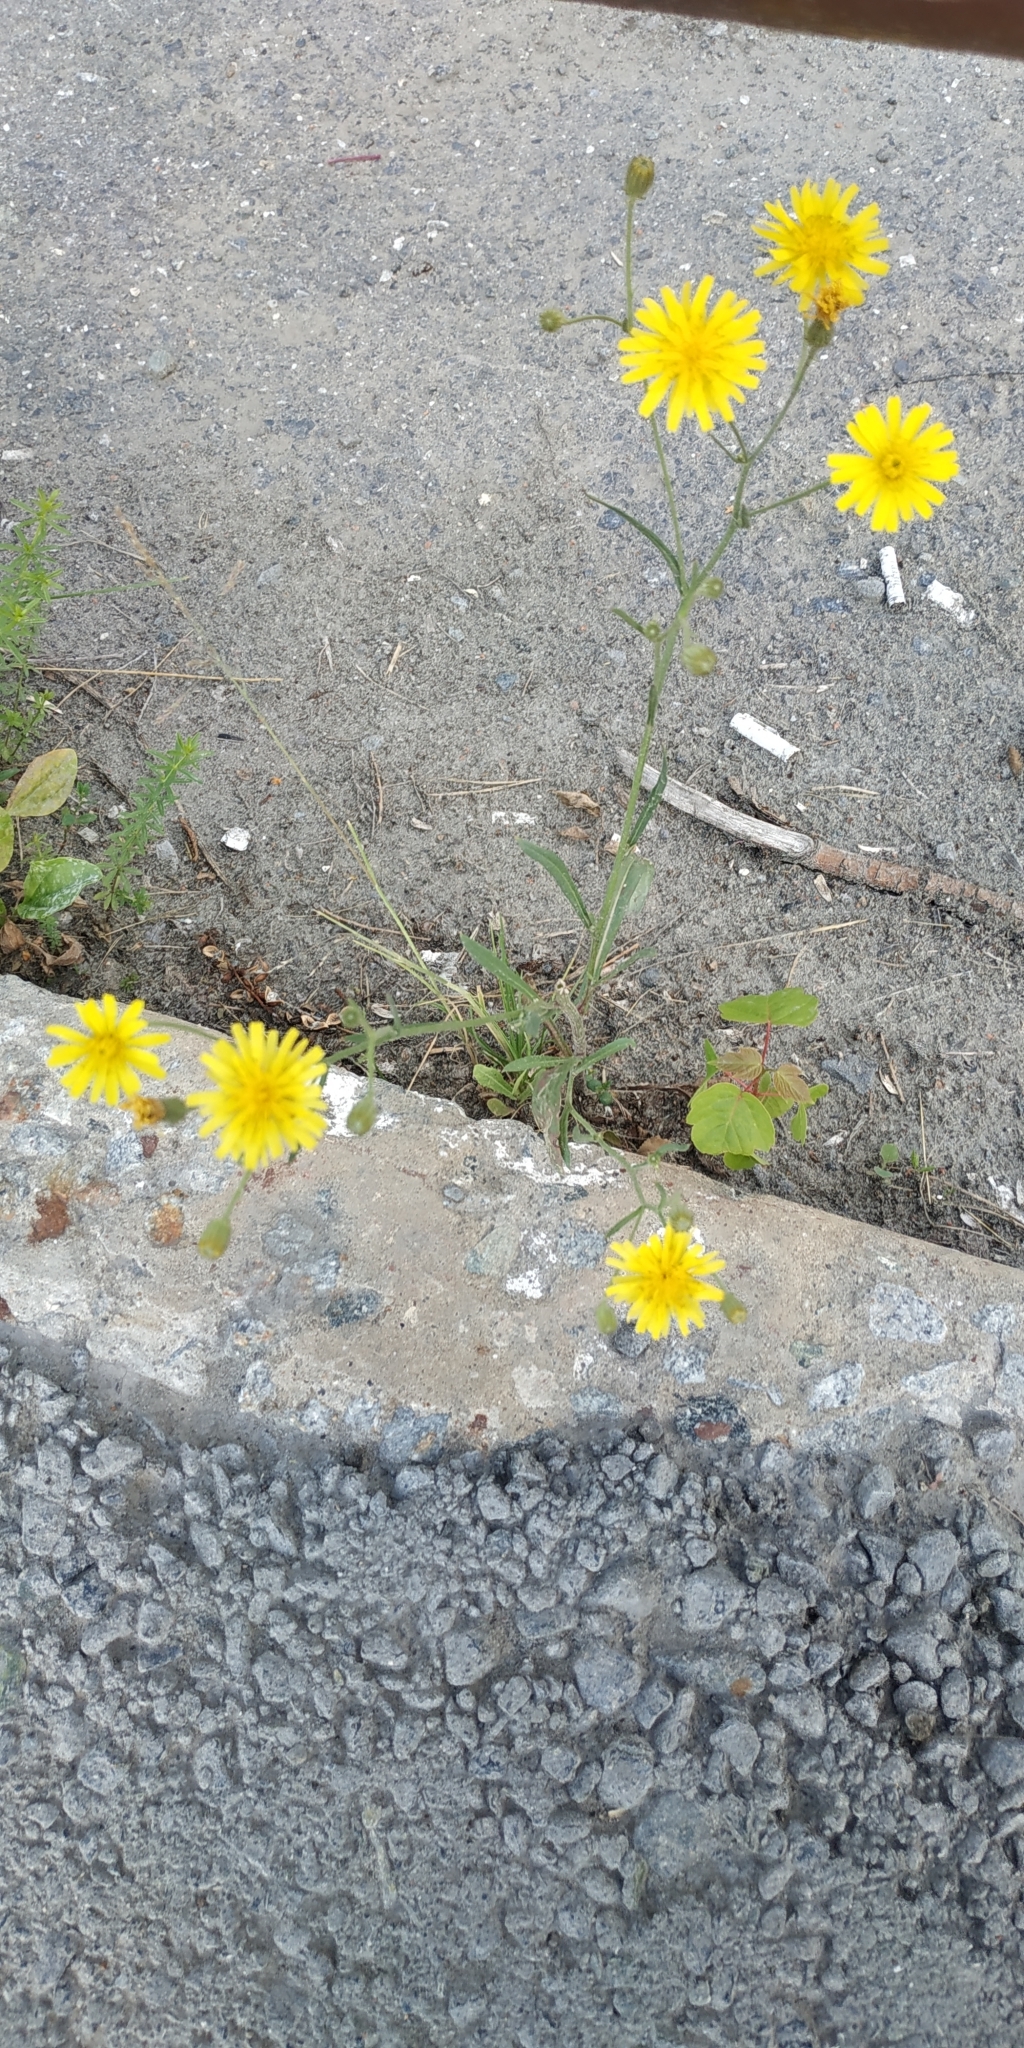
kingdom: Plantae
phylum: Tracheophyta
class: Magnoliopsida
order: Asterales
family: Asteraceae
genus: Crepis
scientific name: Crepis tectorum
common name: Narrow-leaved hawk's-beard
